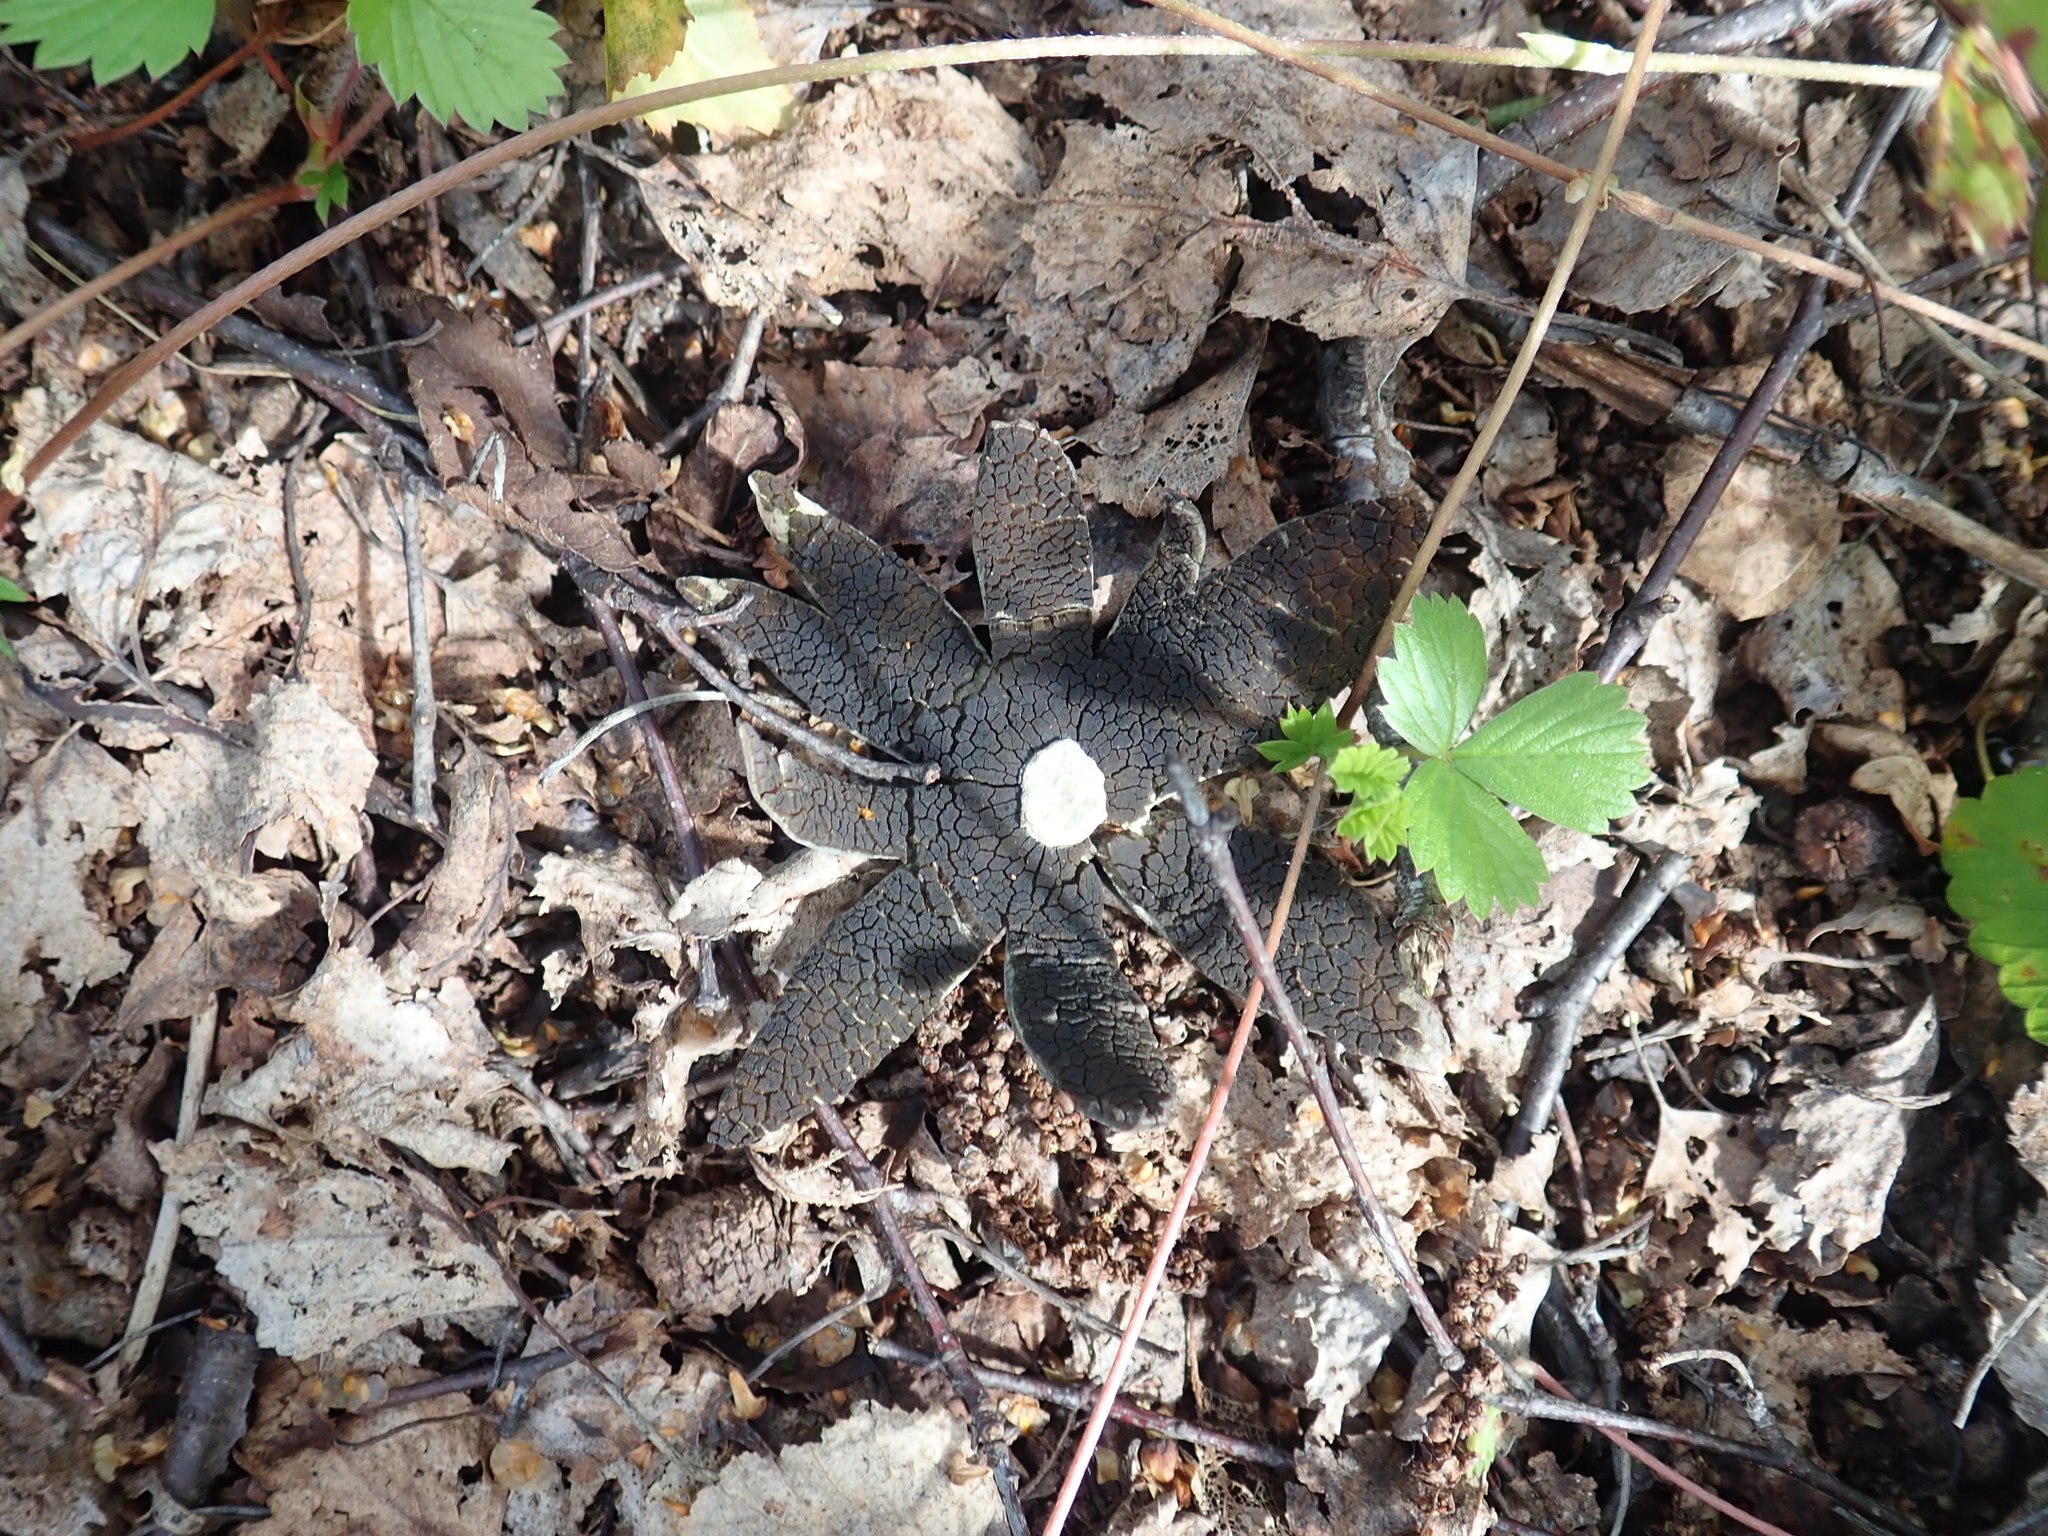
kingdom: Plantae
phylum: Tracheophyta
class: Magnoliopsida
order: Rosales
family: Rosaceae
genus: Fragaria
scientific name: Fragaria vesca
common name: Wild strawberry
